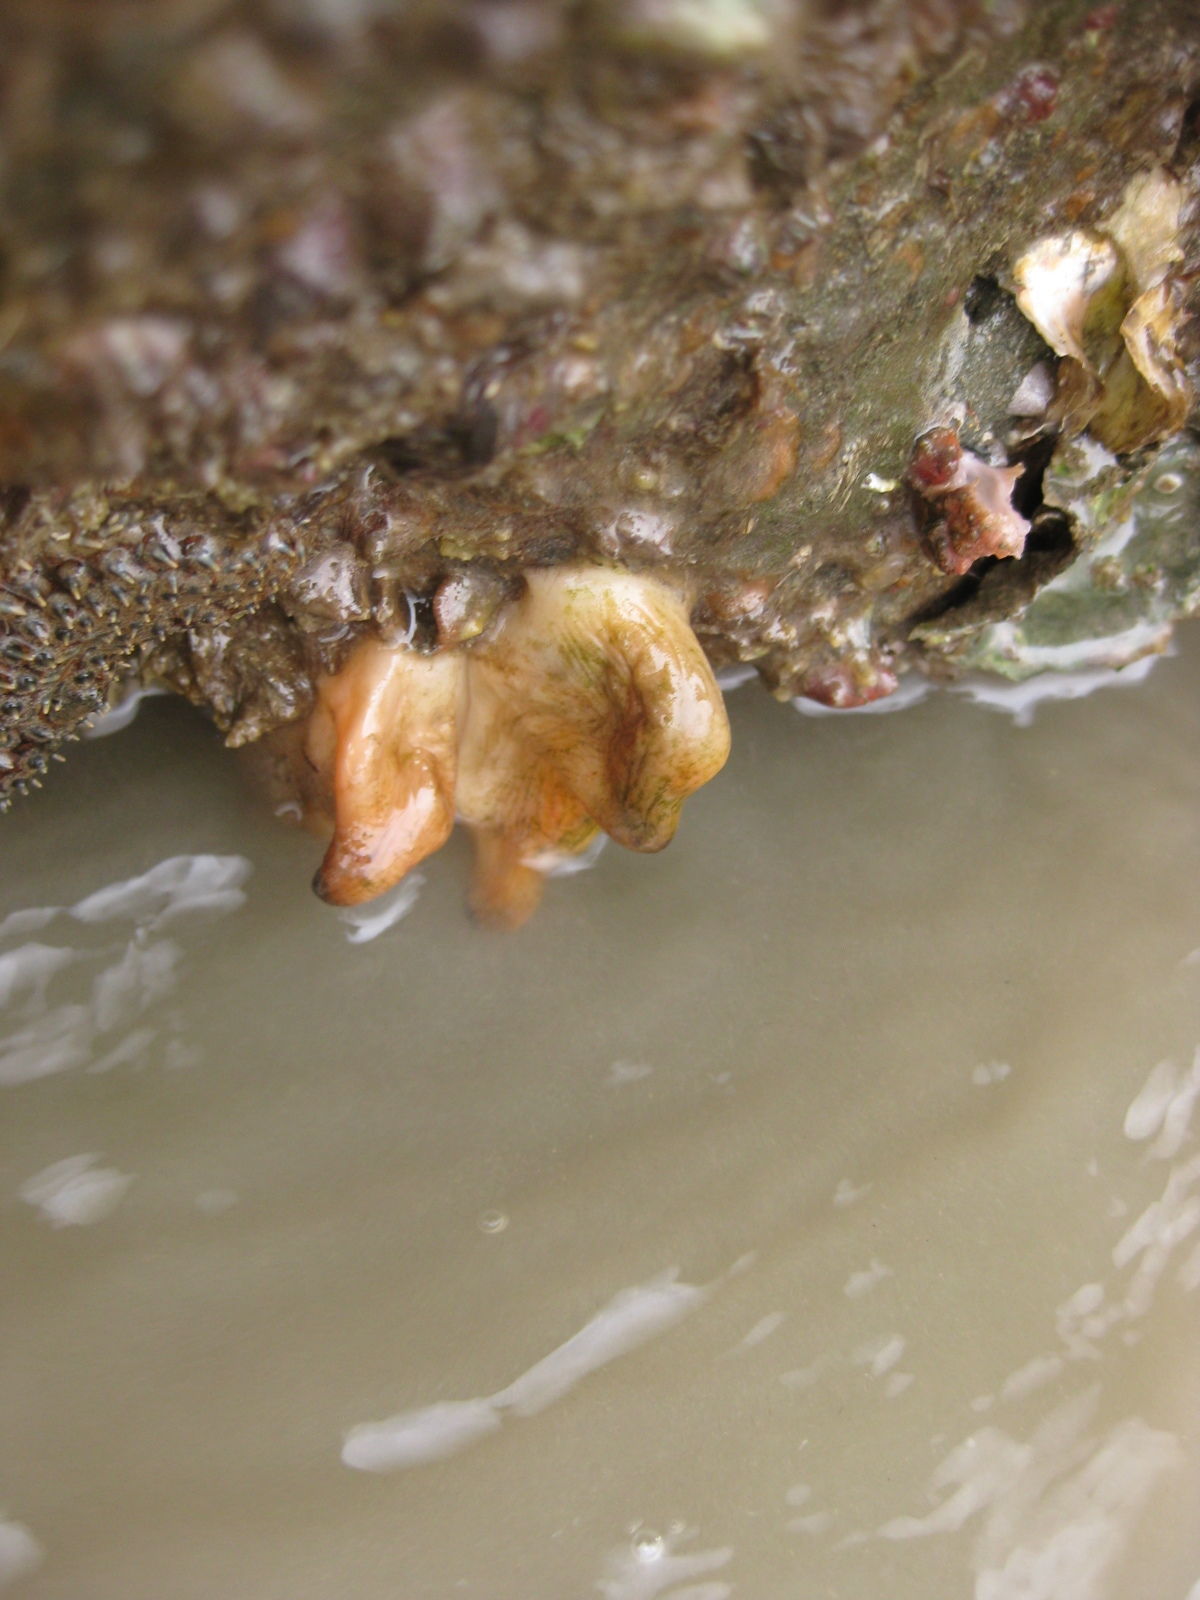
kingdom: Animalia
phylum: Chordata
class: Ascidiacea
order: Stolidobranchia
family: Styelidae
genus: Asterocarpa
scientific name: Asterocarpa coerulea
